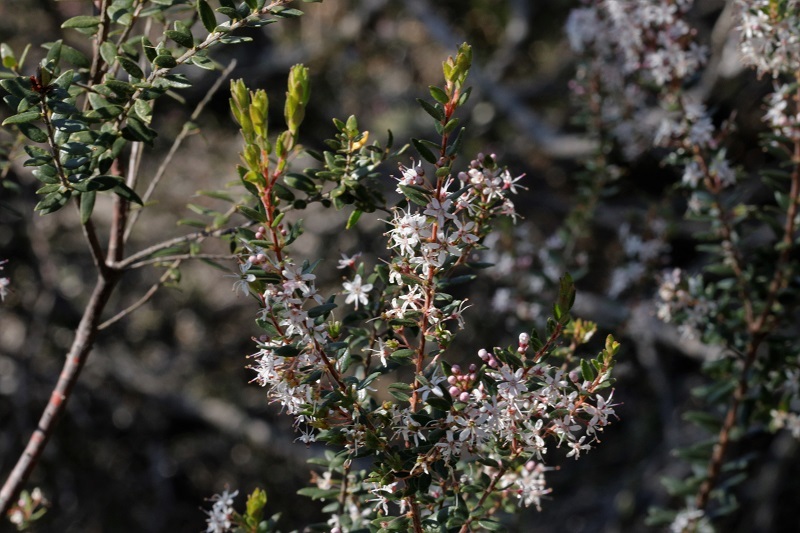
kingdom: Plantae
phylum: Tracheophyta
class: Magnoliopsida
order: Sapindales
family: Rutaceae
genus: Agathosma
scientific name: Agathosma ovata
